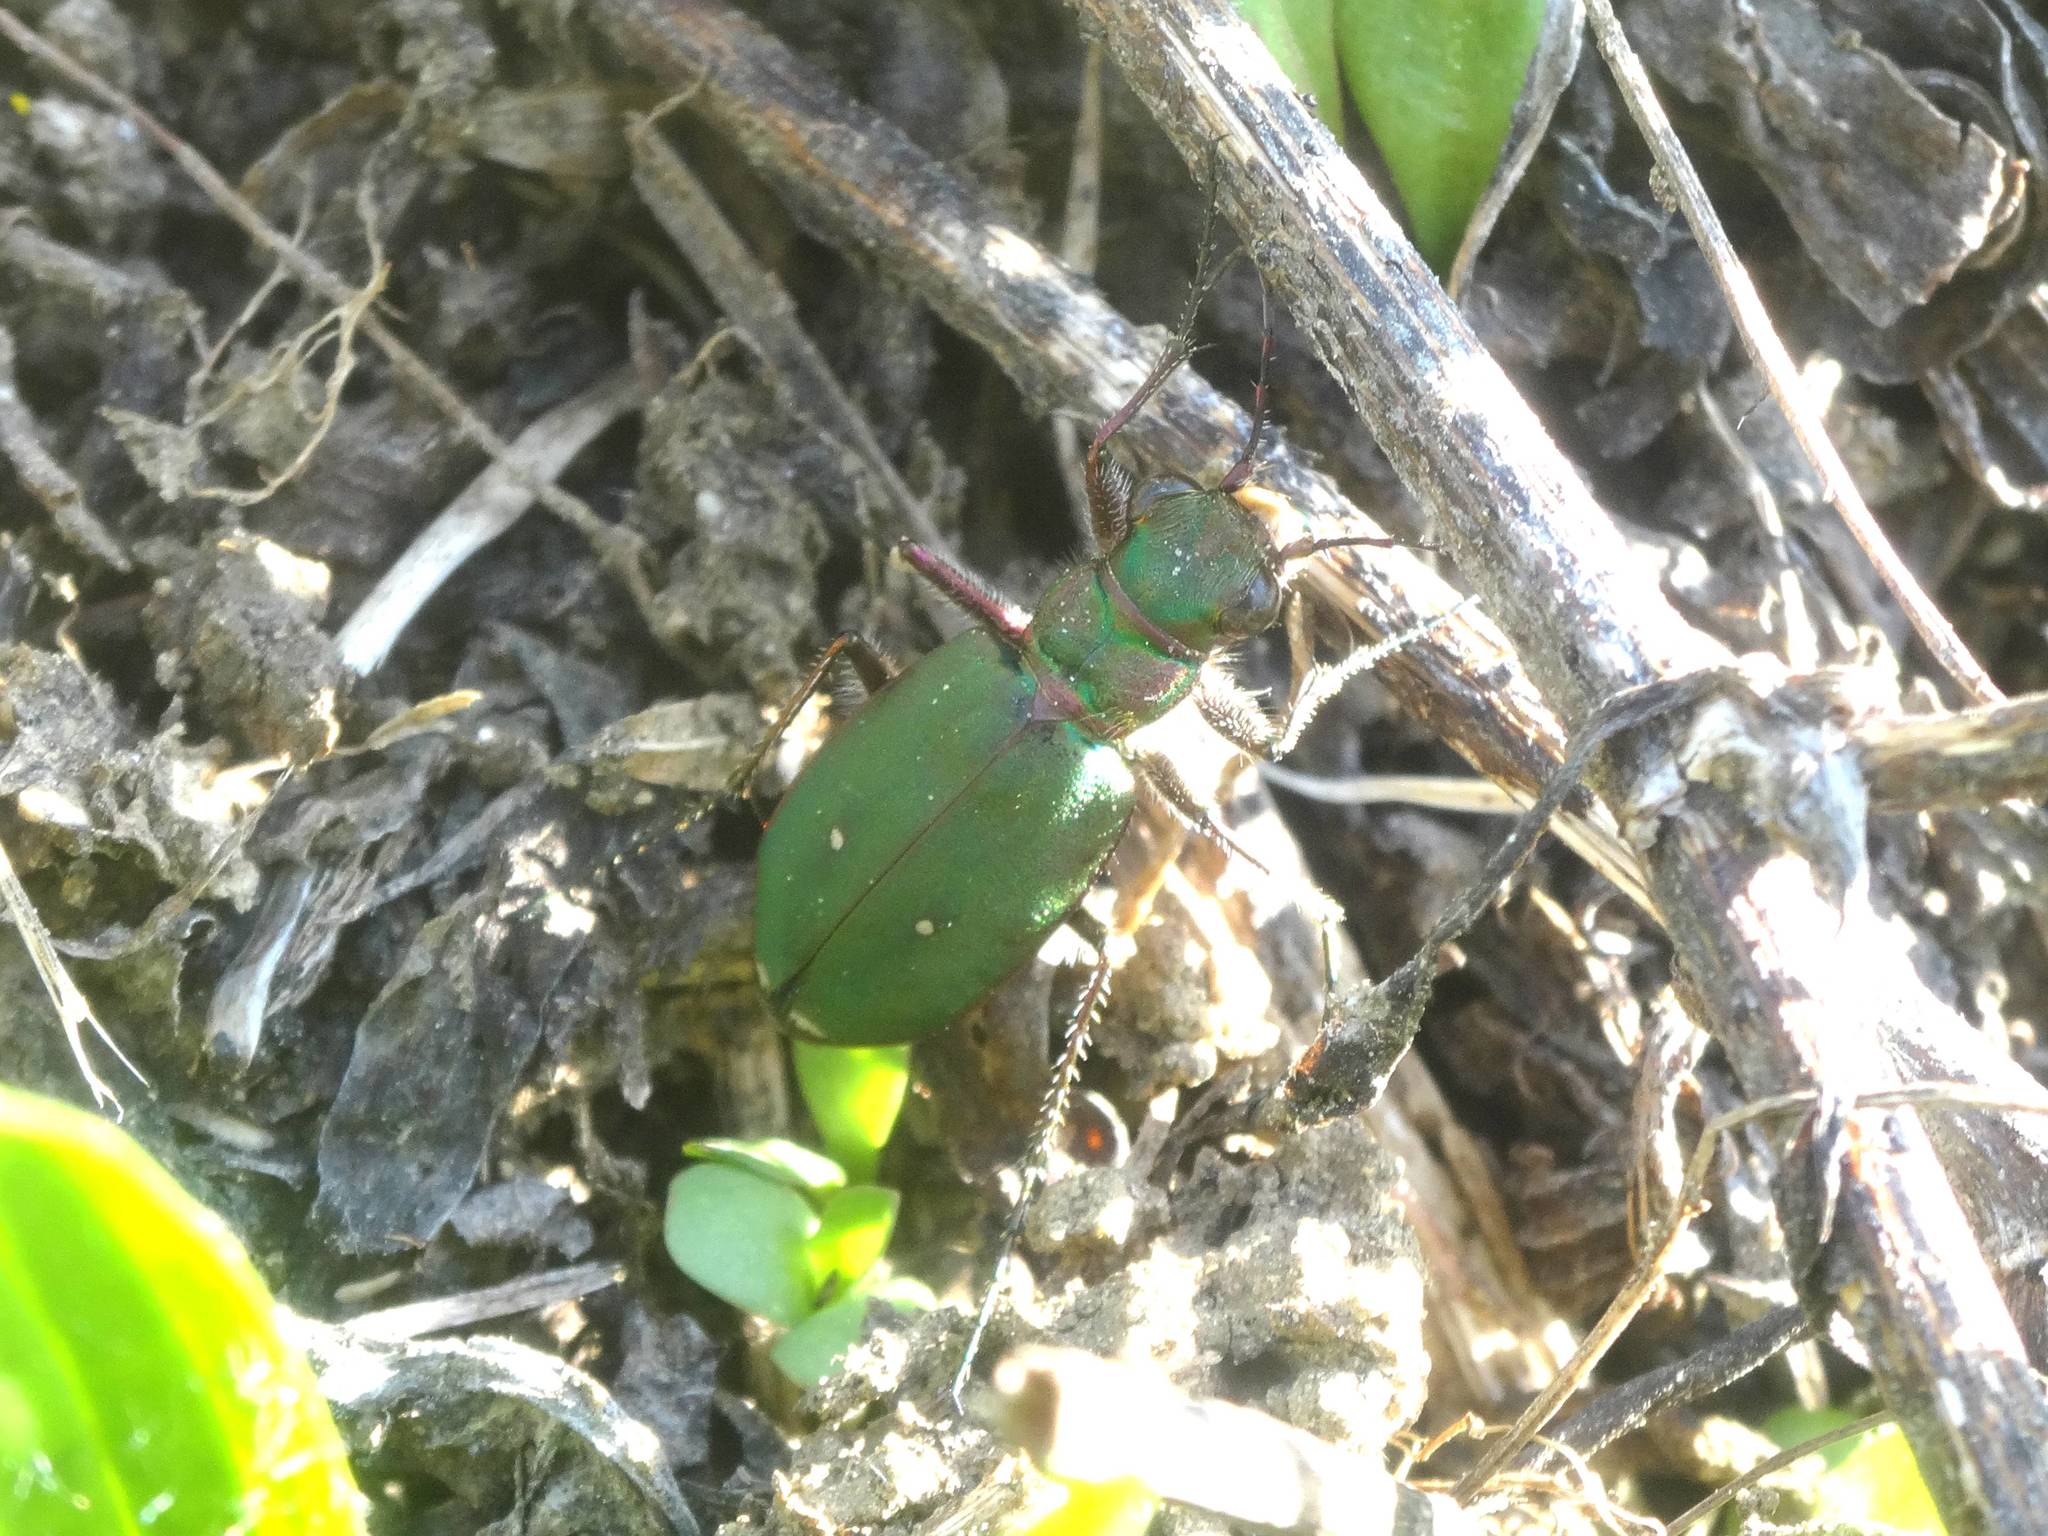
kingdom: Animalia
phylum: Arthropoda
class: Insecta
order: Coleoptera
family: Carabidae
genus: Cicindela
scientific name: Cicindela campestris
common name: Common tiger beetle
